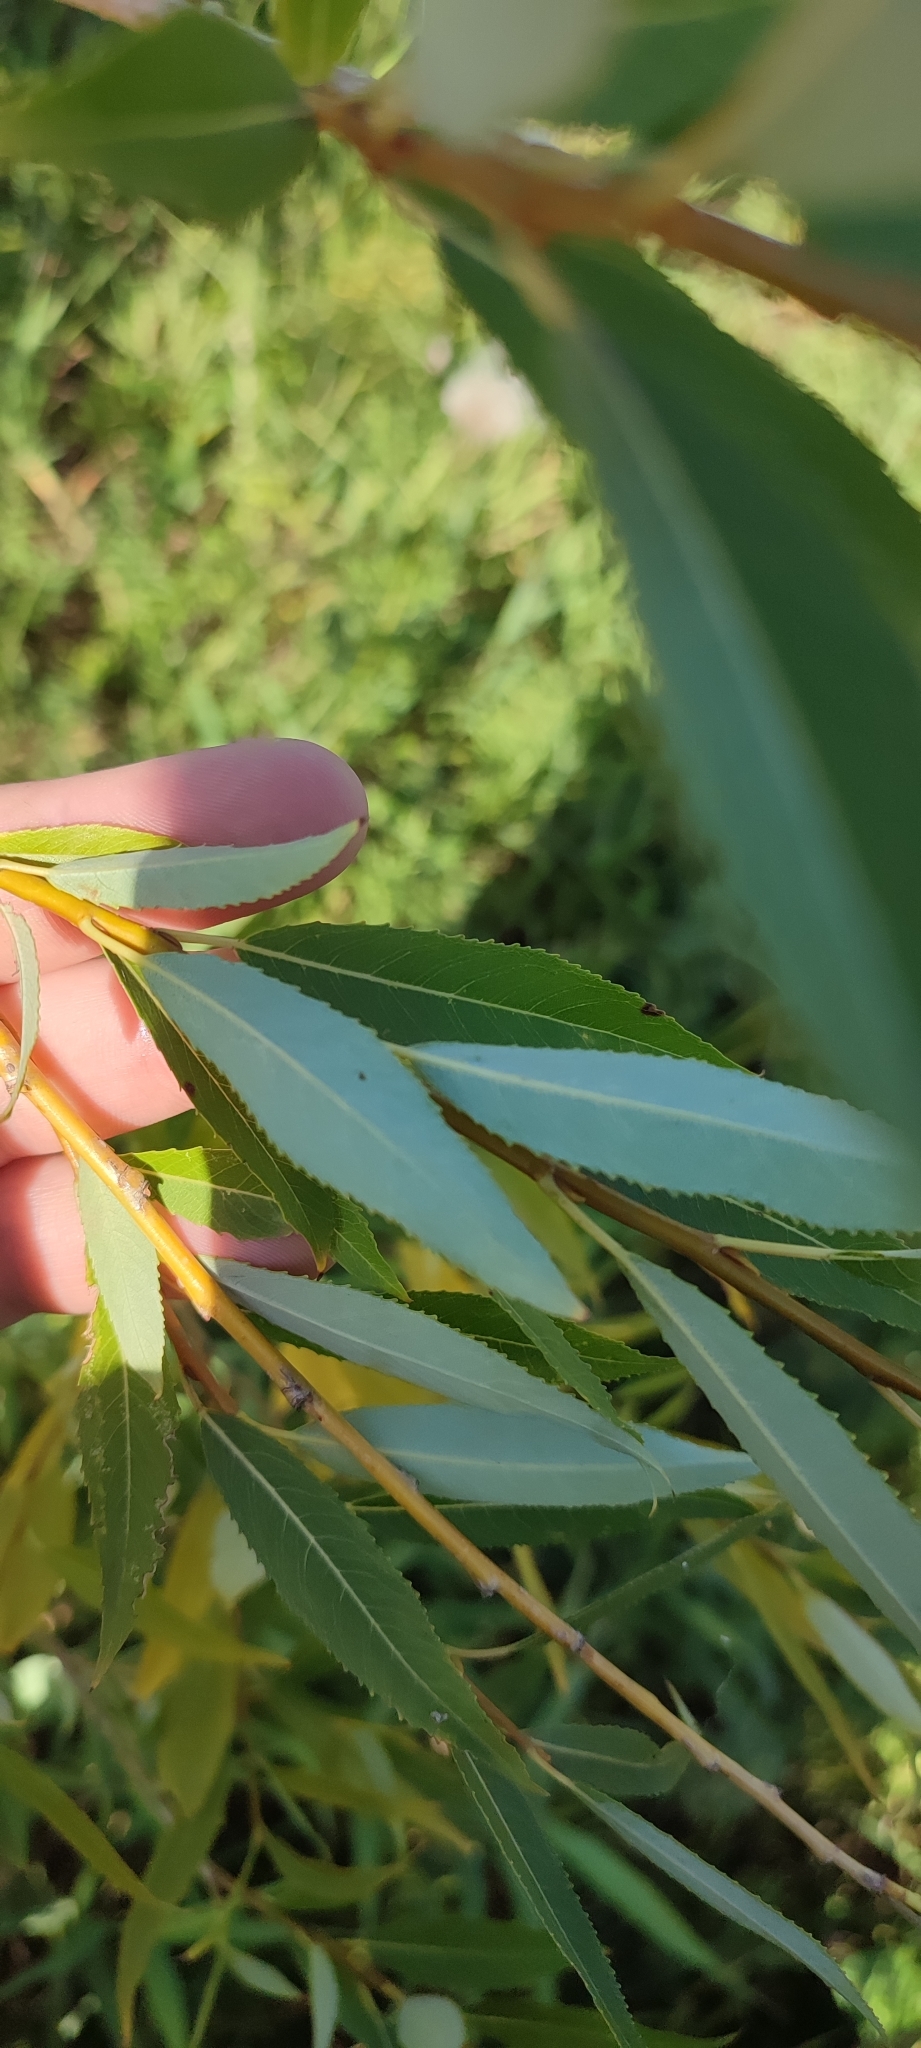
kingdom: Plantae
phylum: Tracheophyta
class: Magnoliopsida
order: Malpighiales
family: Salicaceae
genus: Salix
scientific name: Salix triandra
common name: Almond willow
